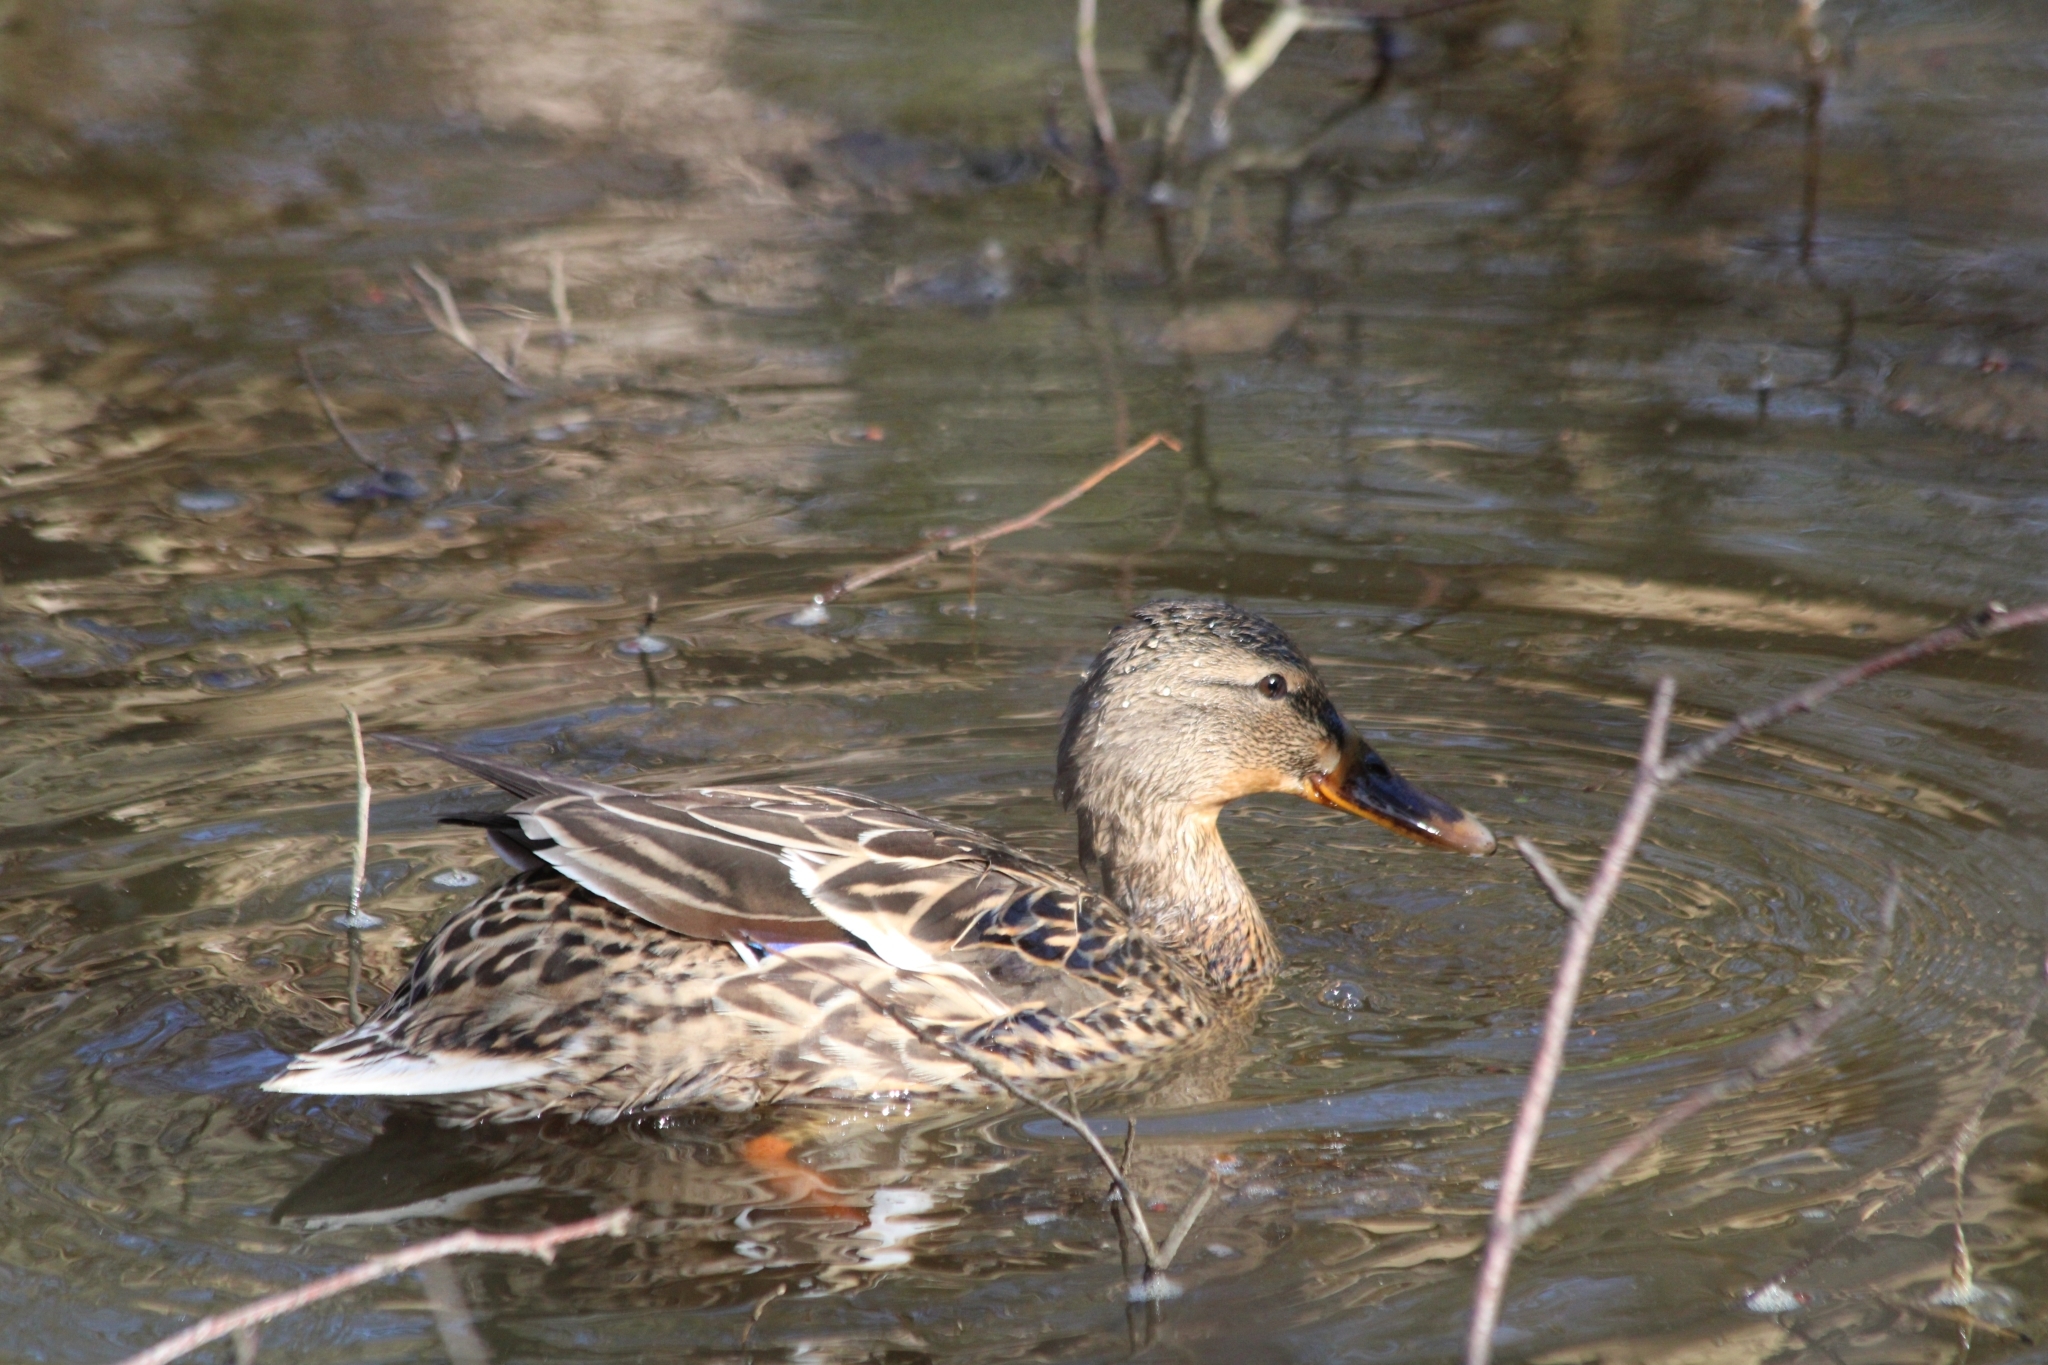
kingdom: Animalia
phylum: Chordata
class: Aves
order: Anseriformes
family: Anatidae
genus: Anas
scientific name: Anas platyrhynchos
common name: Mallard
